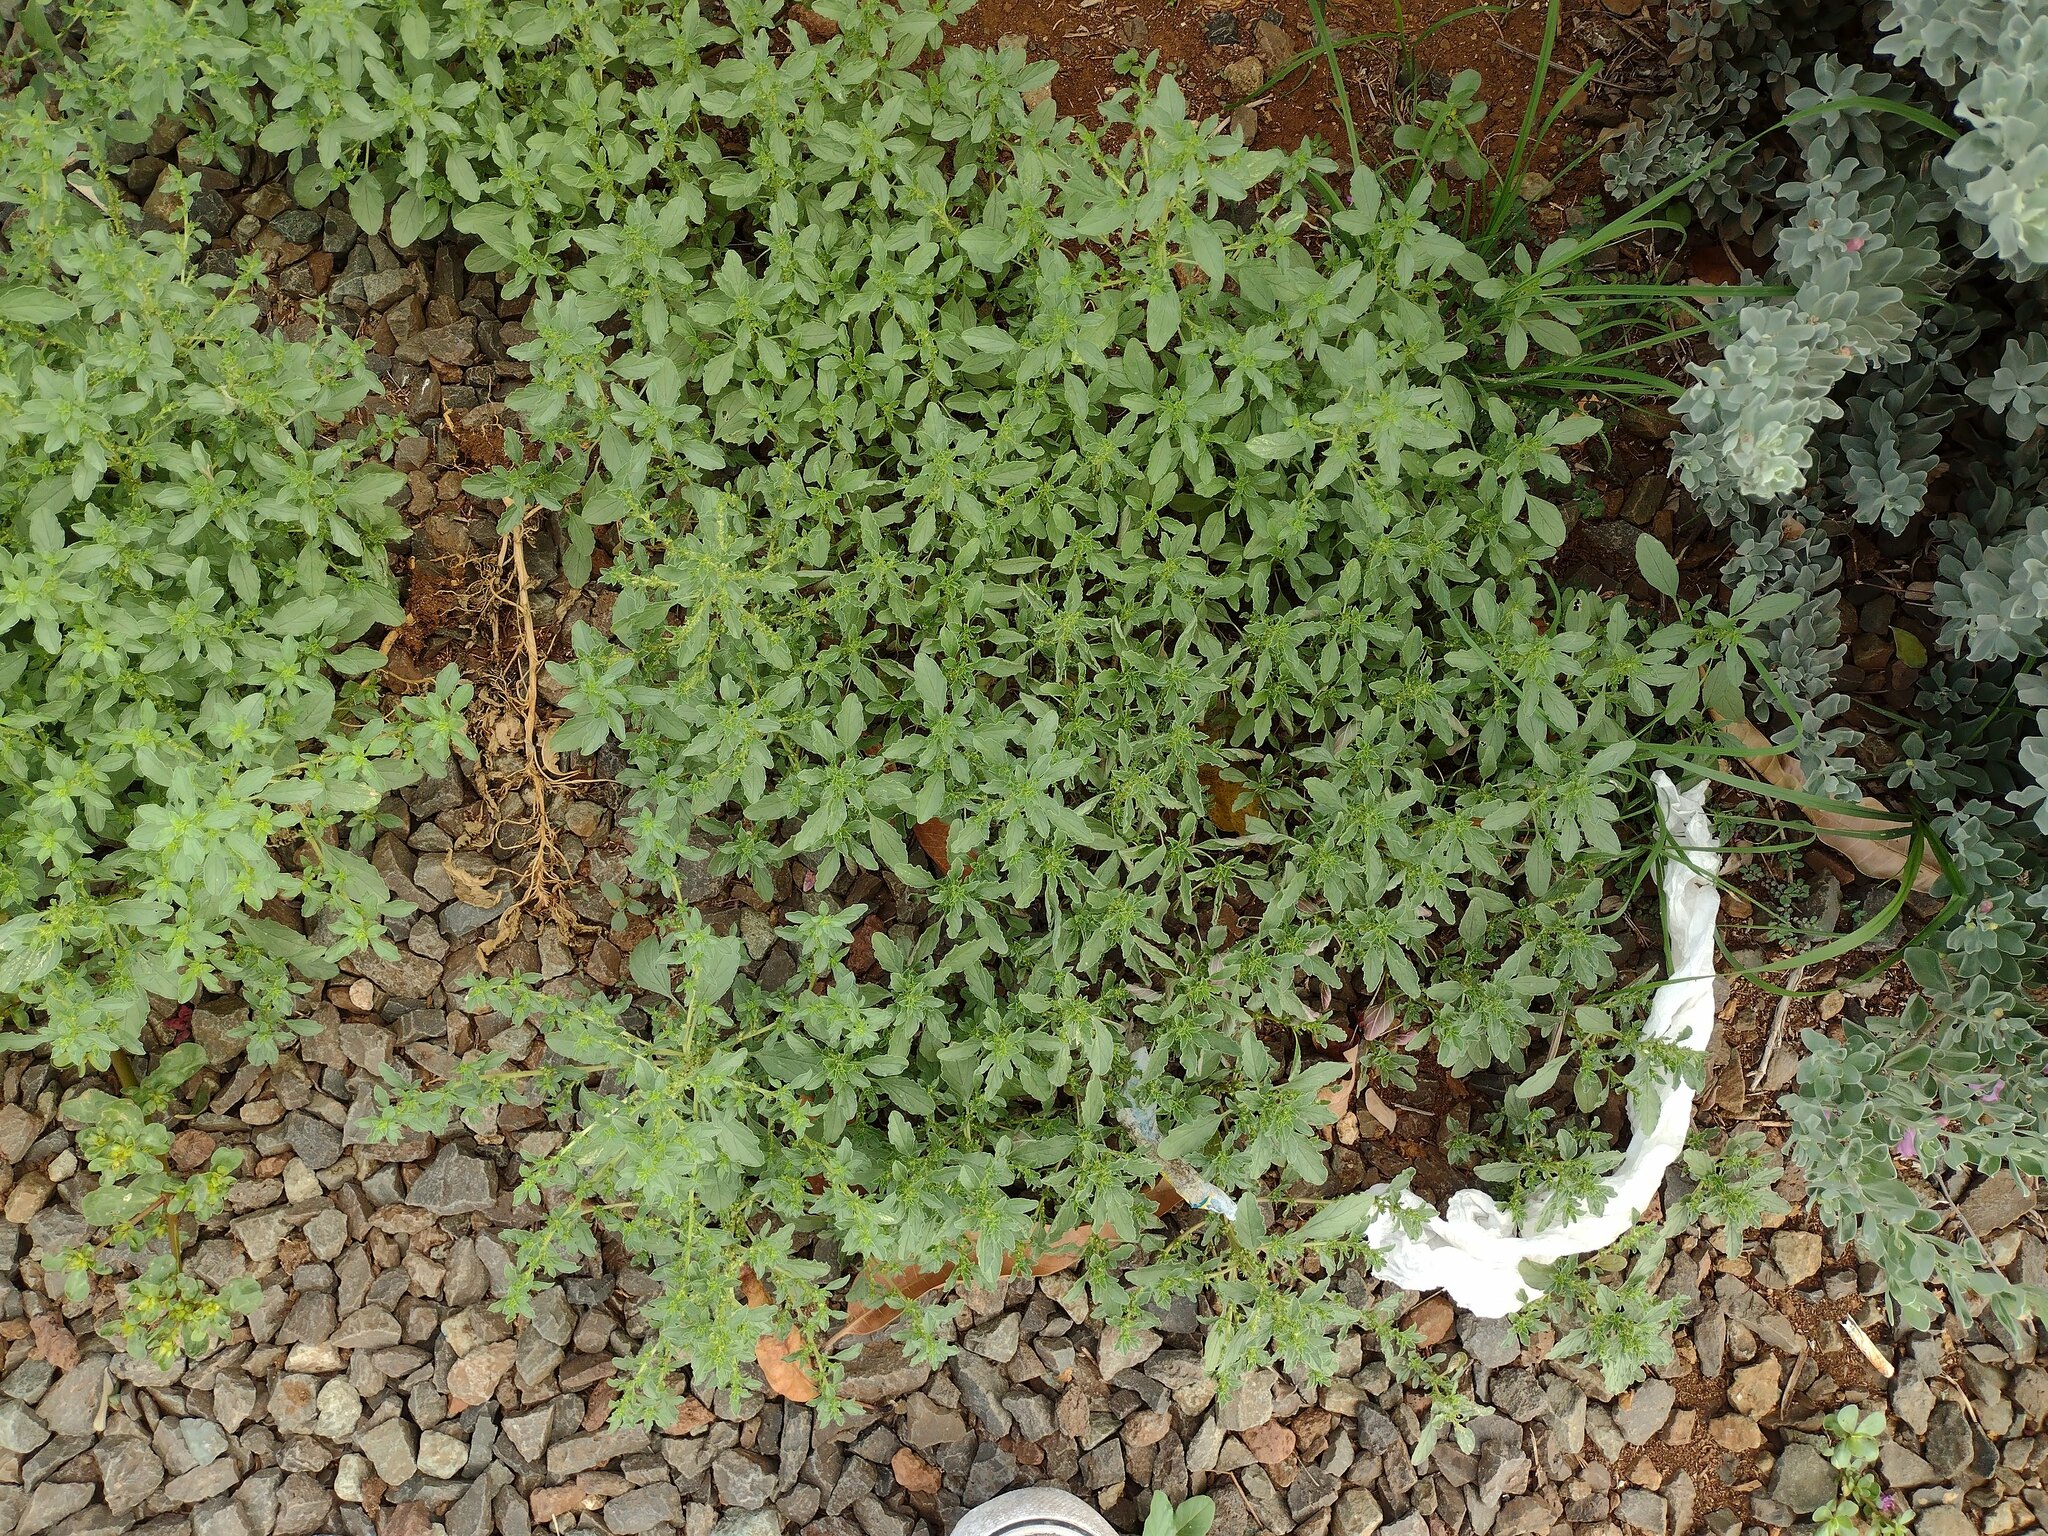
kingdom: Plantae
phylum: Tracheophyta
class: Magnoliopsida
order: Caryophyllales
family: Amaranthaceae
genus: Amaranthus
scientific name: Amaranthus albus
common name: White pigweed
